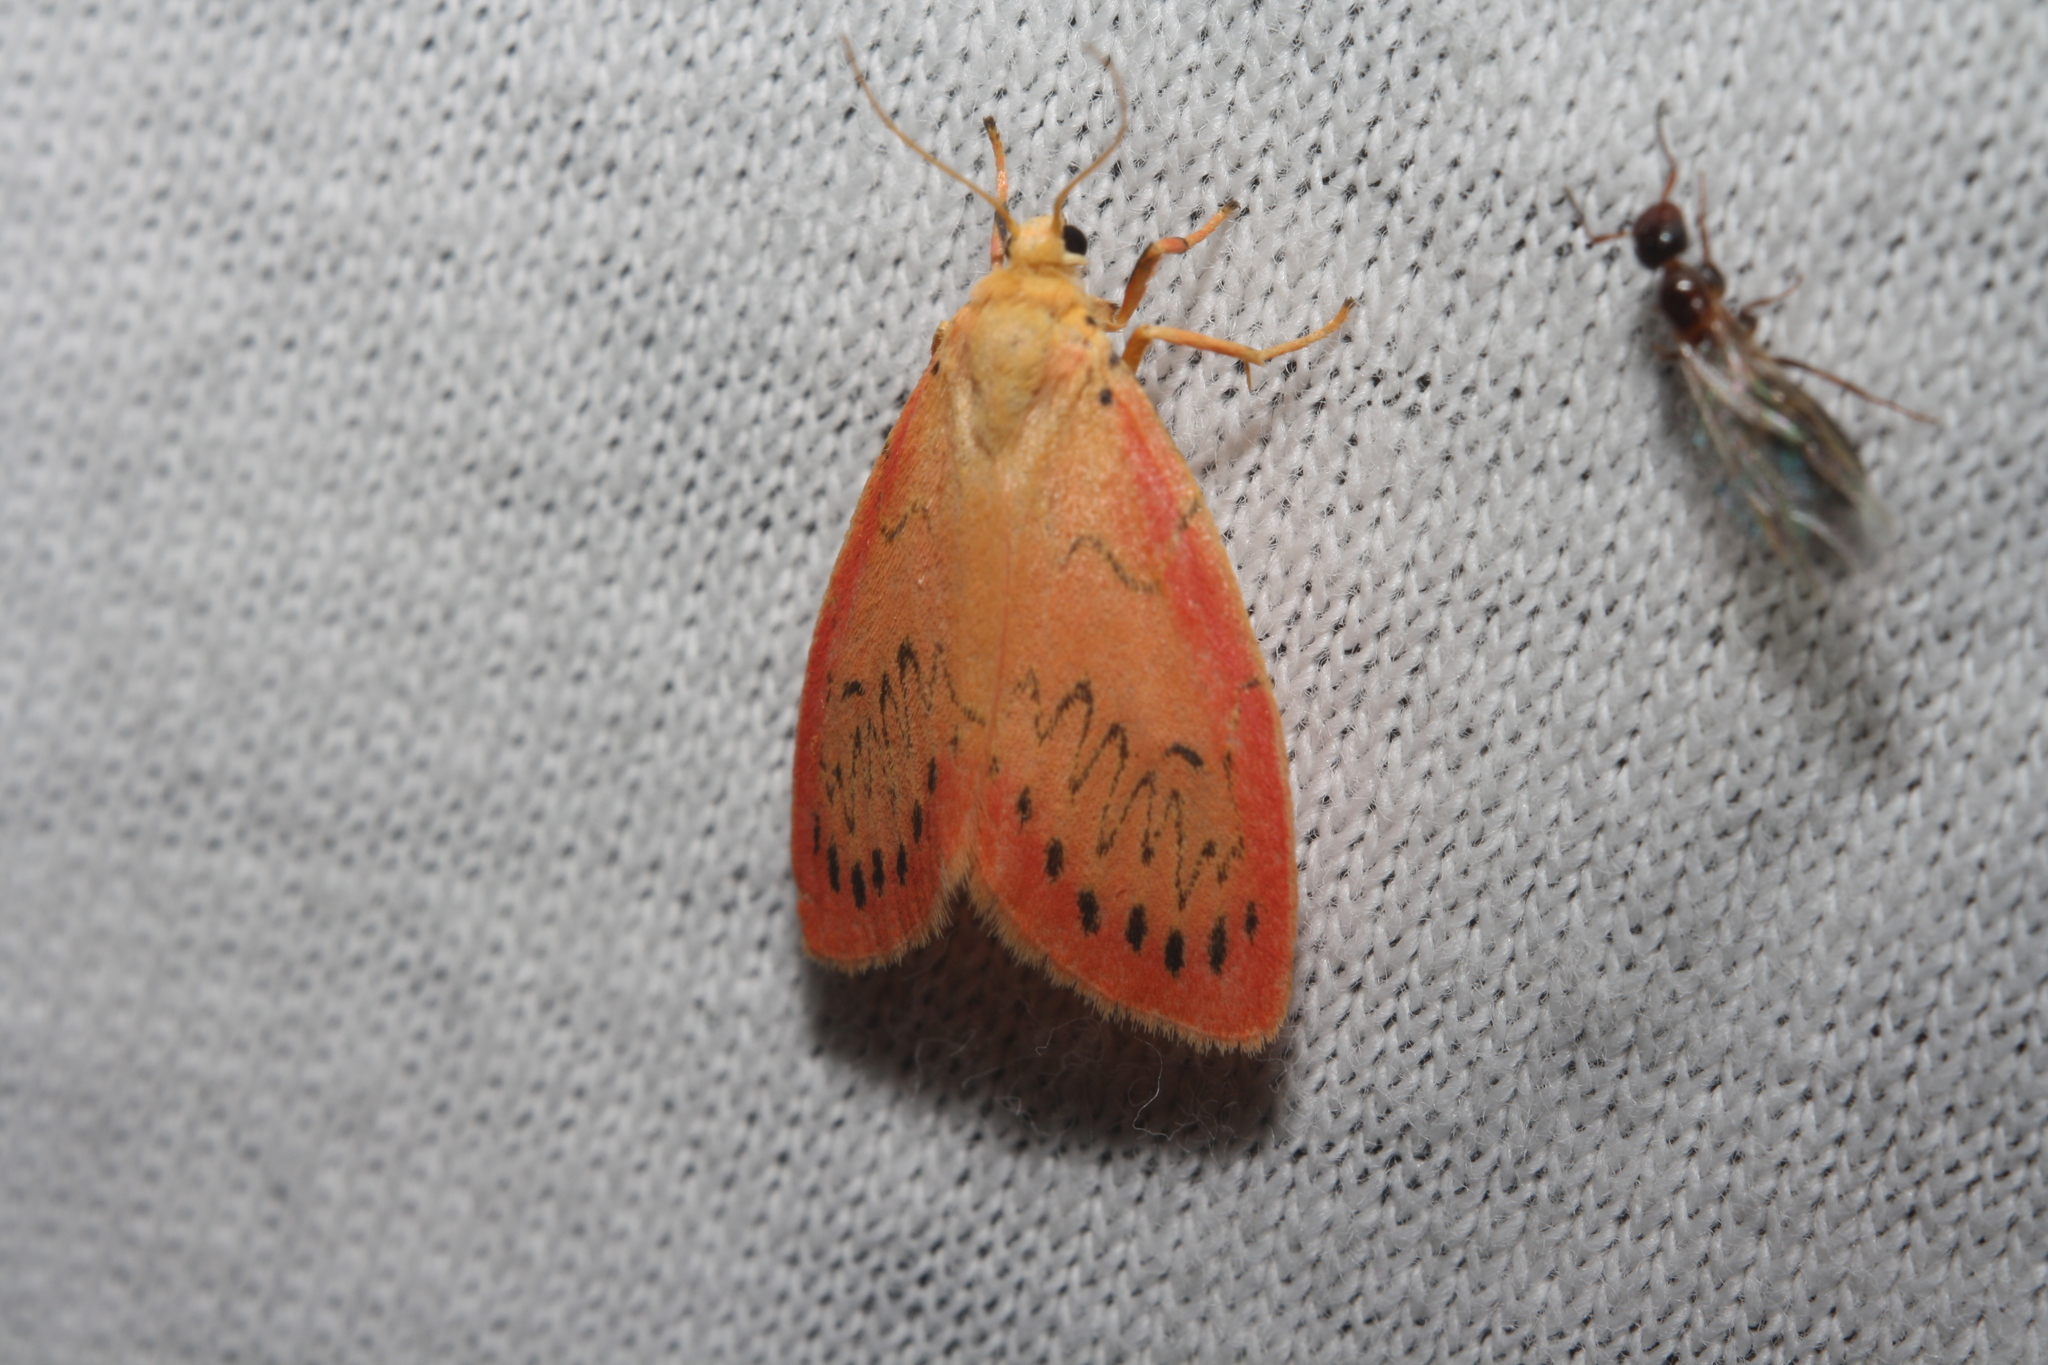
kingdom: Animalia
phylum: Arthropoda
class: Insecta
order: Lepidoptera
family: Erebidae
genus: Miltochrista
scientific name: Miltochrista miniata
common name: Rosy footman
